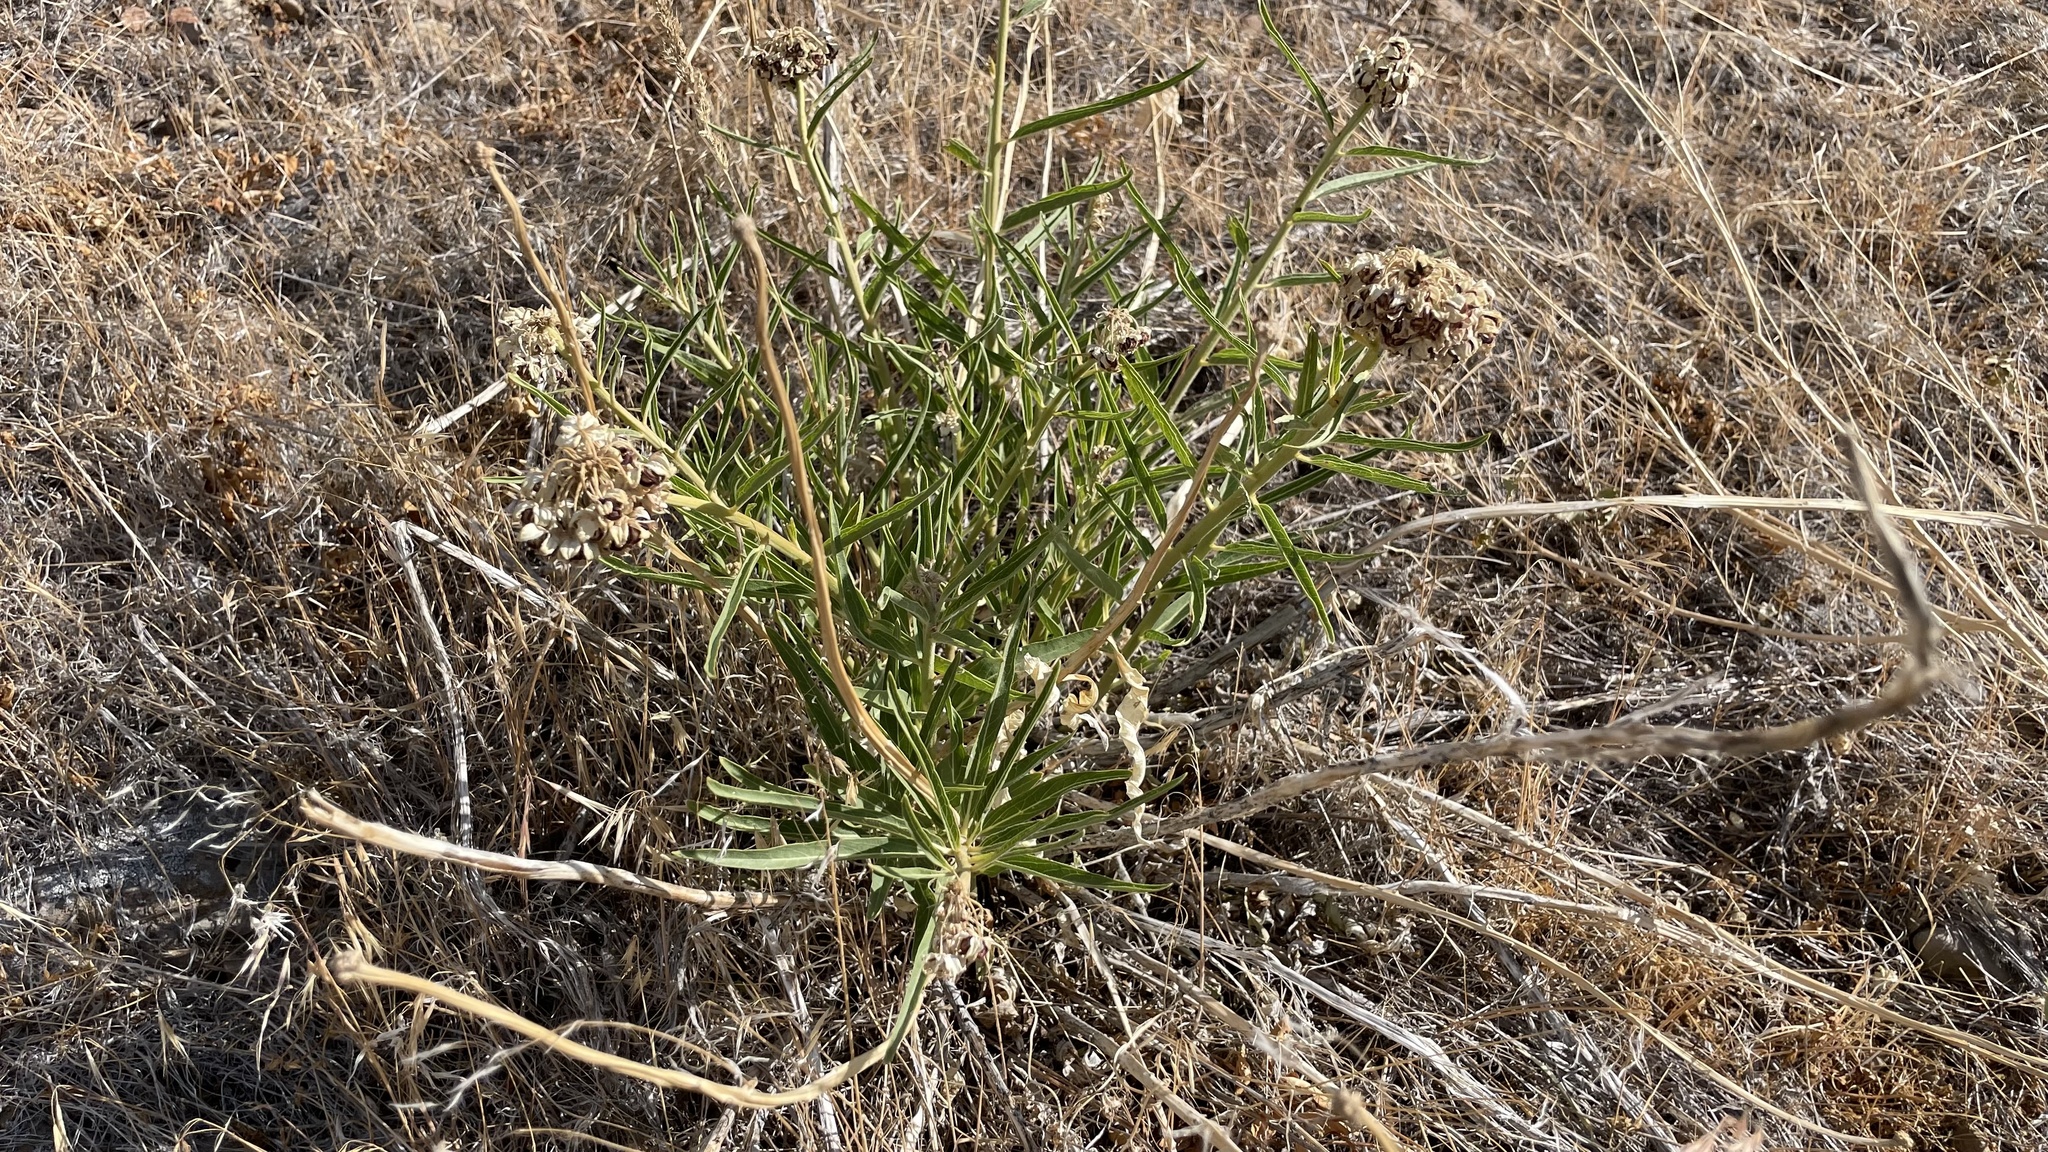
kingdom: Plantae
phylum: Tracheophyta
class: Magnoliopsida
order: Gentianales
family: Apocynaceae
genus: Asclepias
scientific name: Asclepias asperula
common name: Antelope horns
